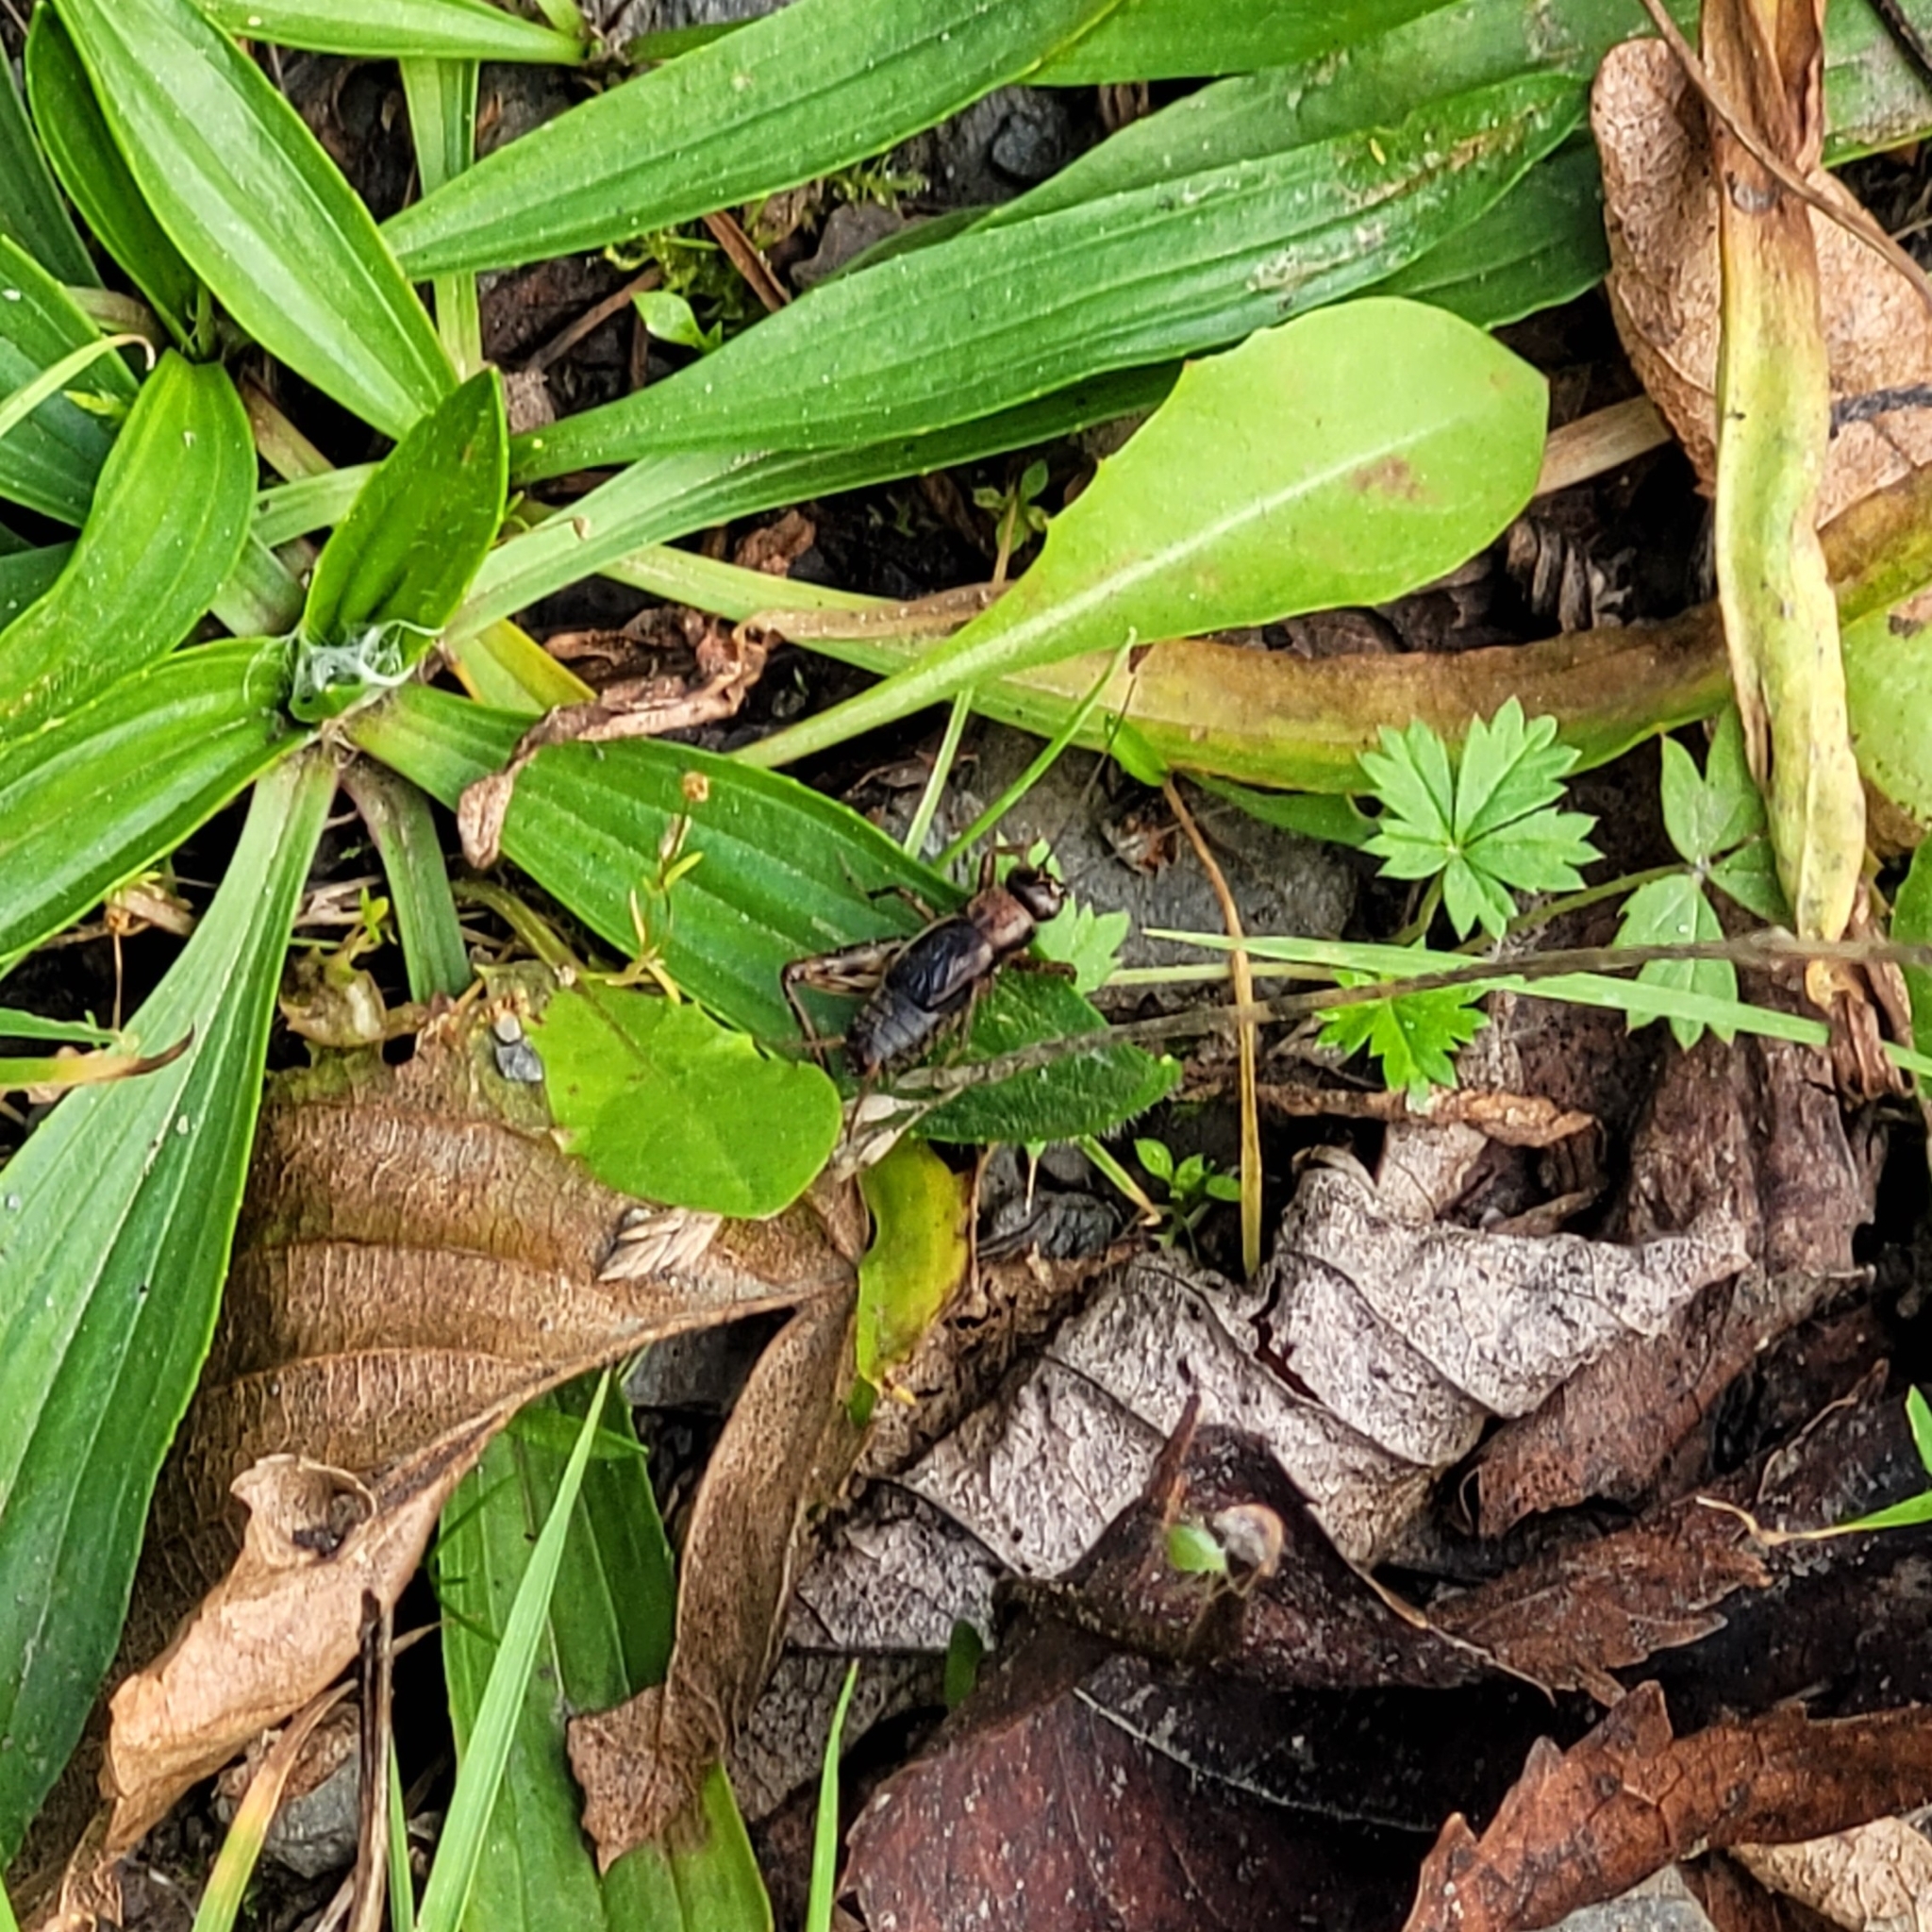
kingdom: Animalia
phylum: Arthropoda
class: Insecta
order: Orthoptera
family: Trigonidiidae
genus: Nemobius
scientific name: Nemobius sylvestris
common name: Wood-cricket
